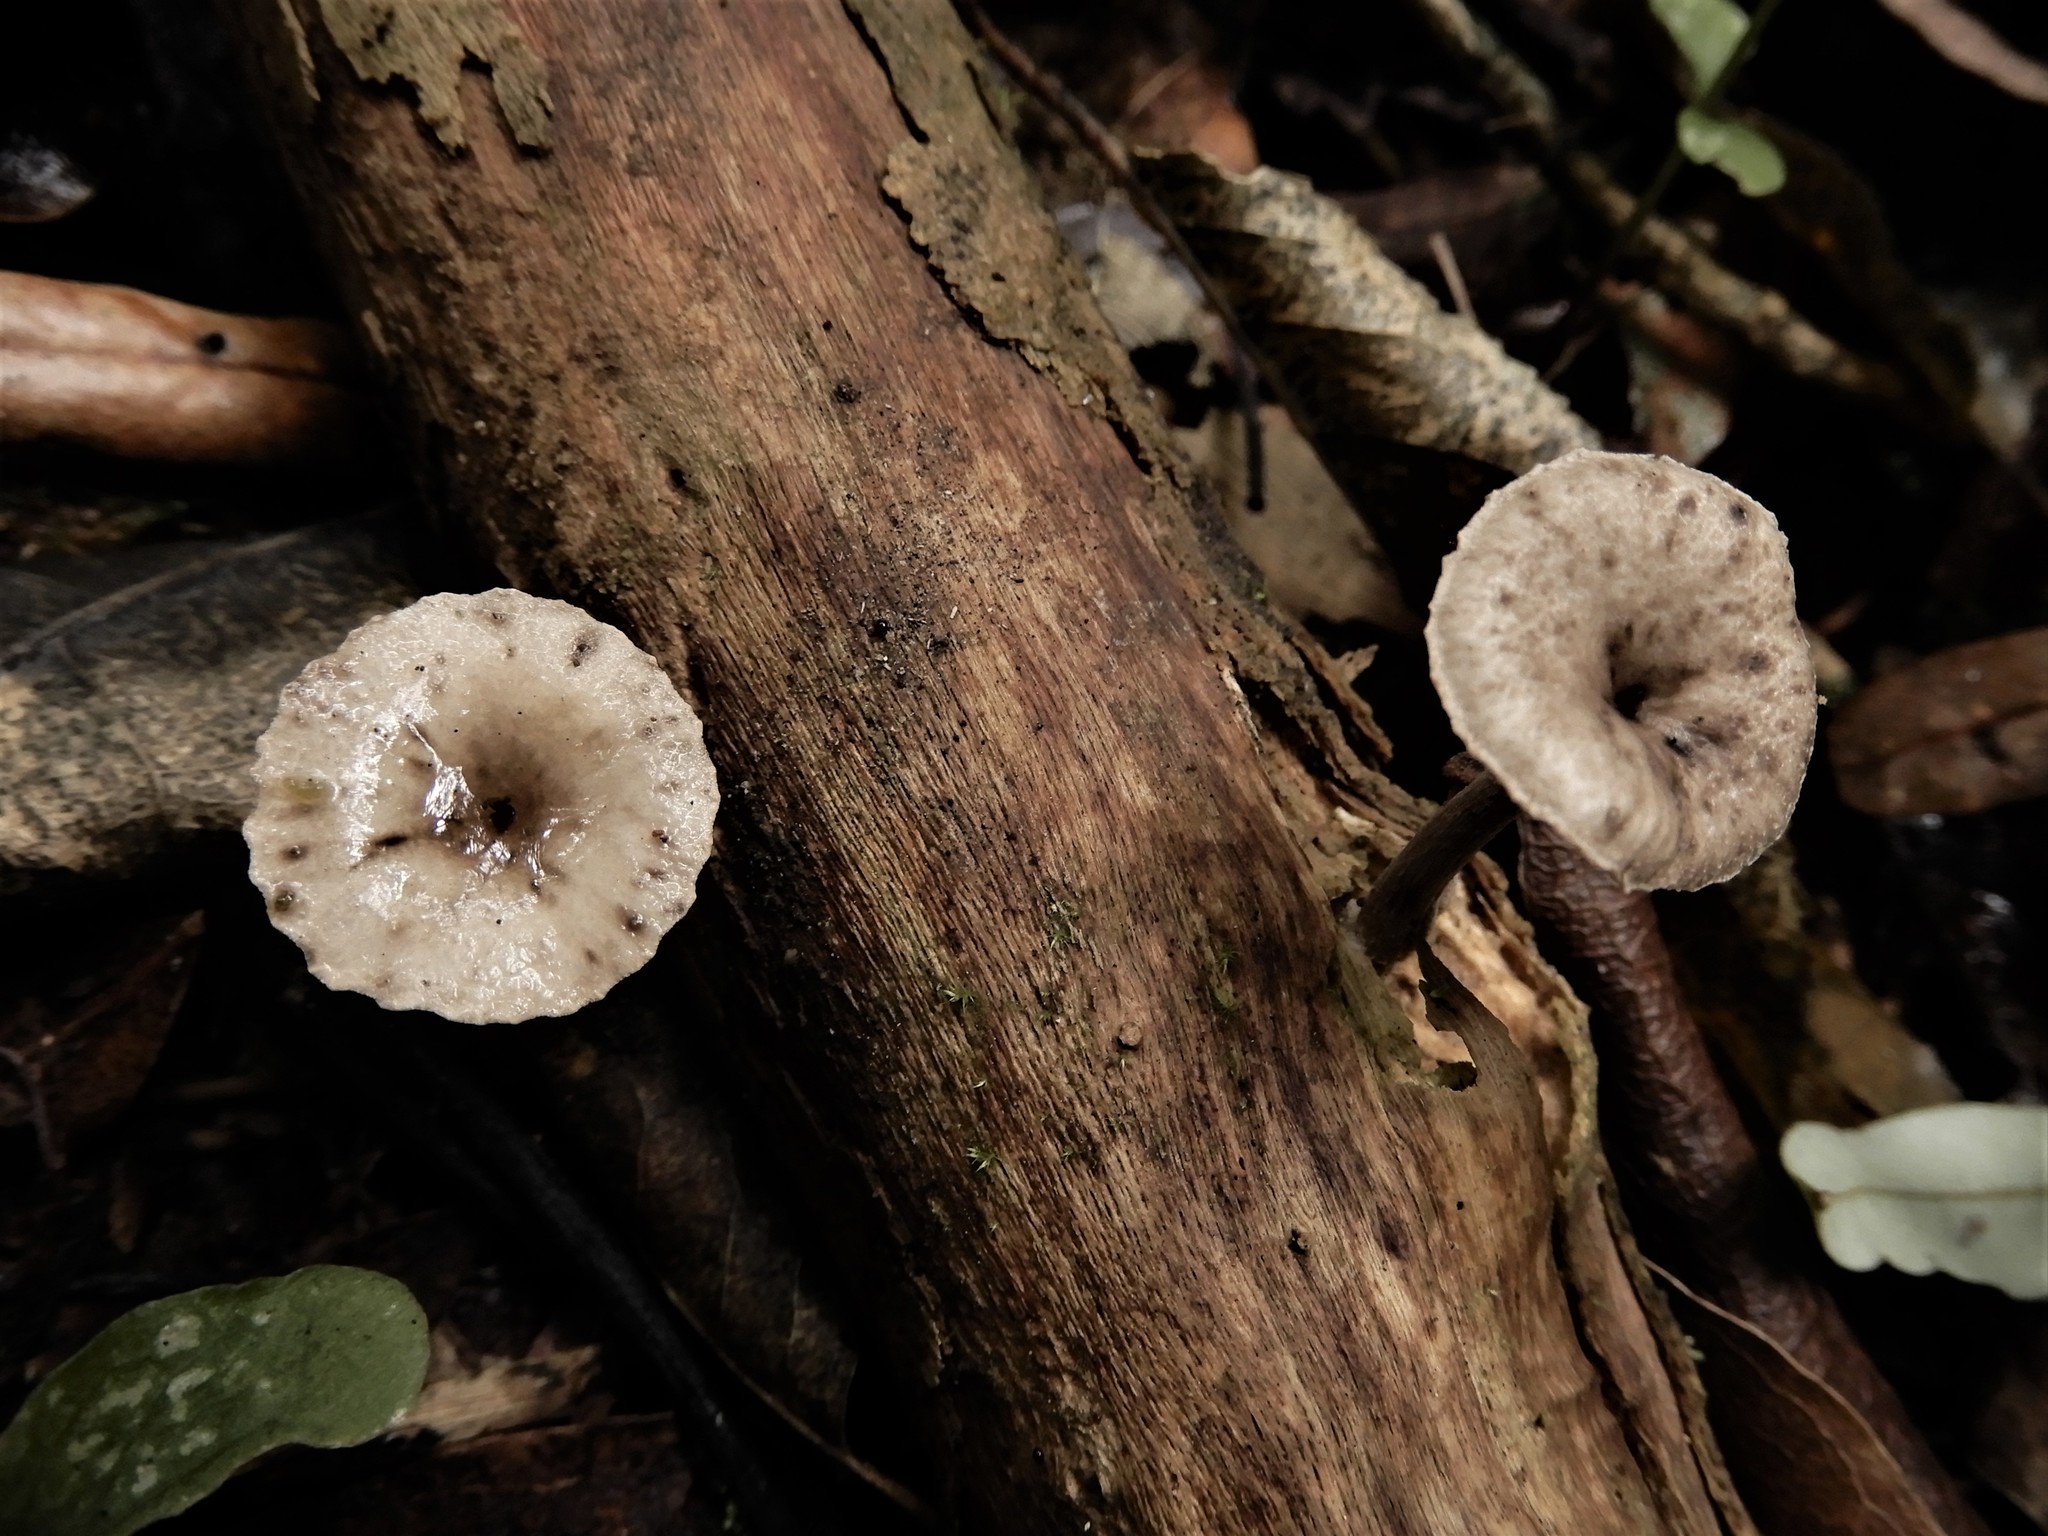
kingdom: Fungi
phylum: Basidiomycota
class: Agaricomycetes
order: Agaricales
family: Pleurotaceae
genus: Hohenbuehelia
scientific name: Hohenbuehelia
